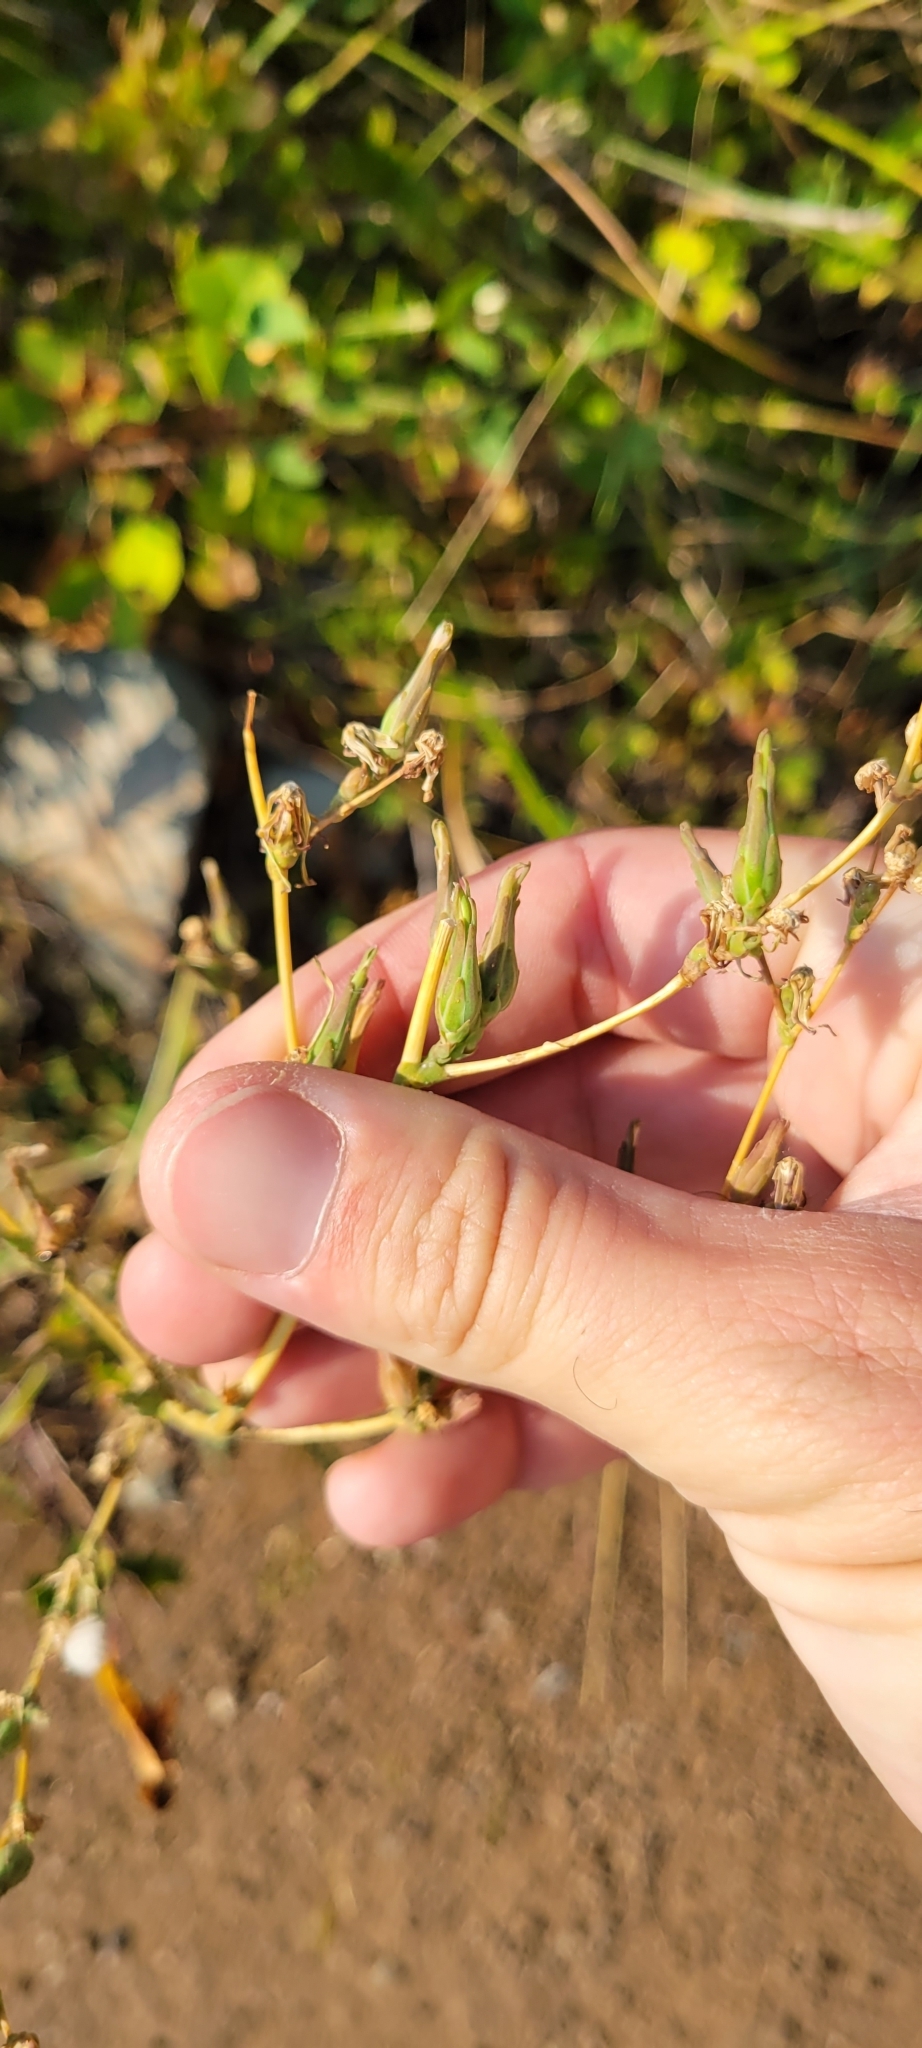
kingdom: Plantae
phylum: Tracheophyta
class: Magnoliopsida
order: Asterales
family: Asteraceae
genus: Lactuca
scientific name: Lactuca serriola
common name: Prickly lettuce
